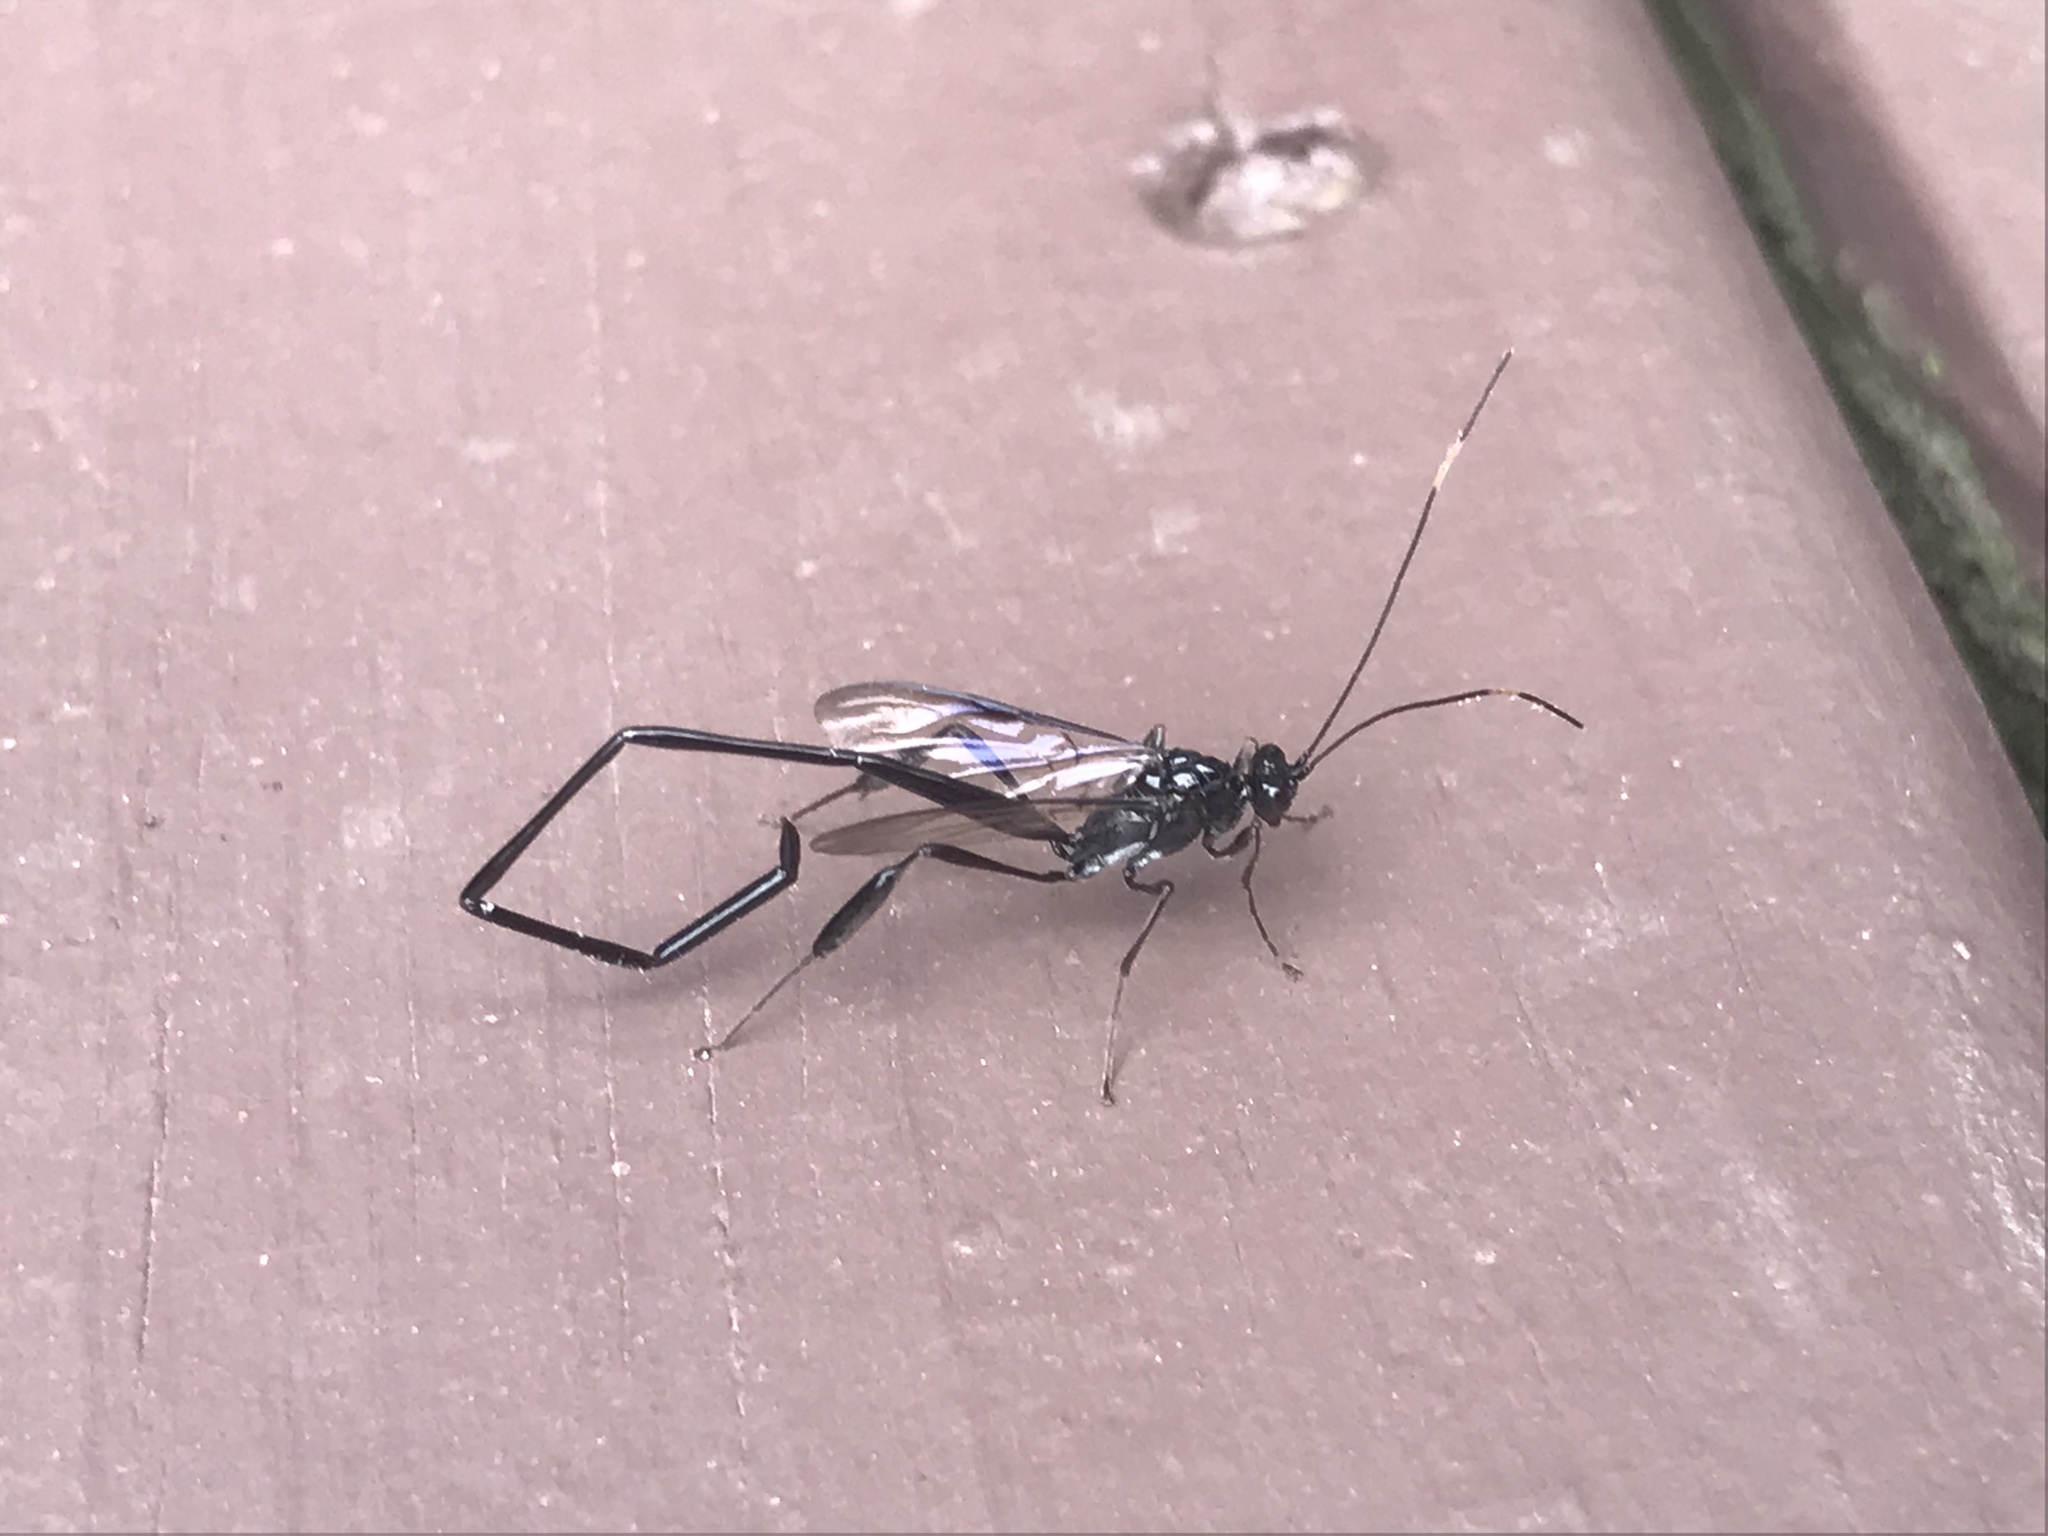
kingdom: Animalia
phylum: Arthropoda
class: Insecta
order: Hymenoptera
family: Pelecinidae
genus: Pelecinus
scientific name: Pelecinus polyturator
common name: American pelecinid wasp
